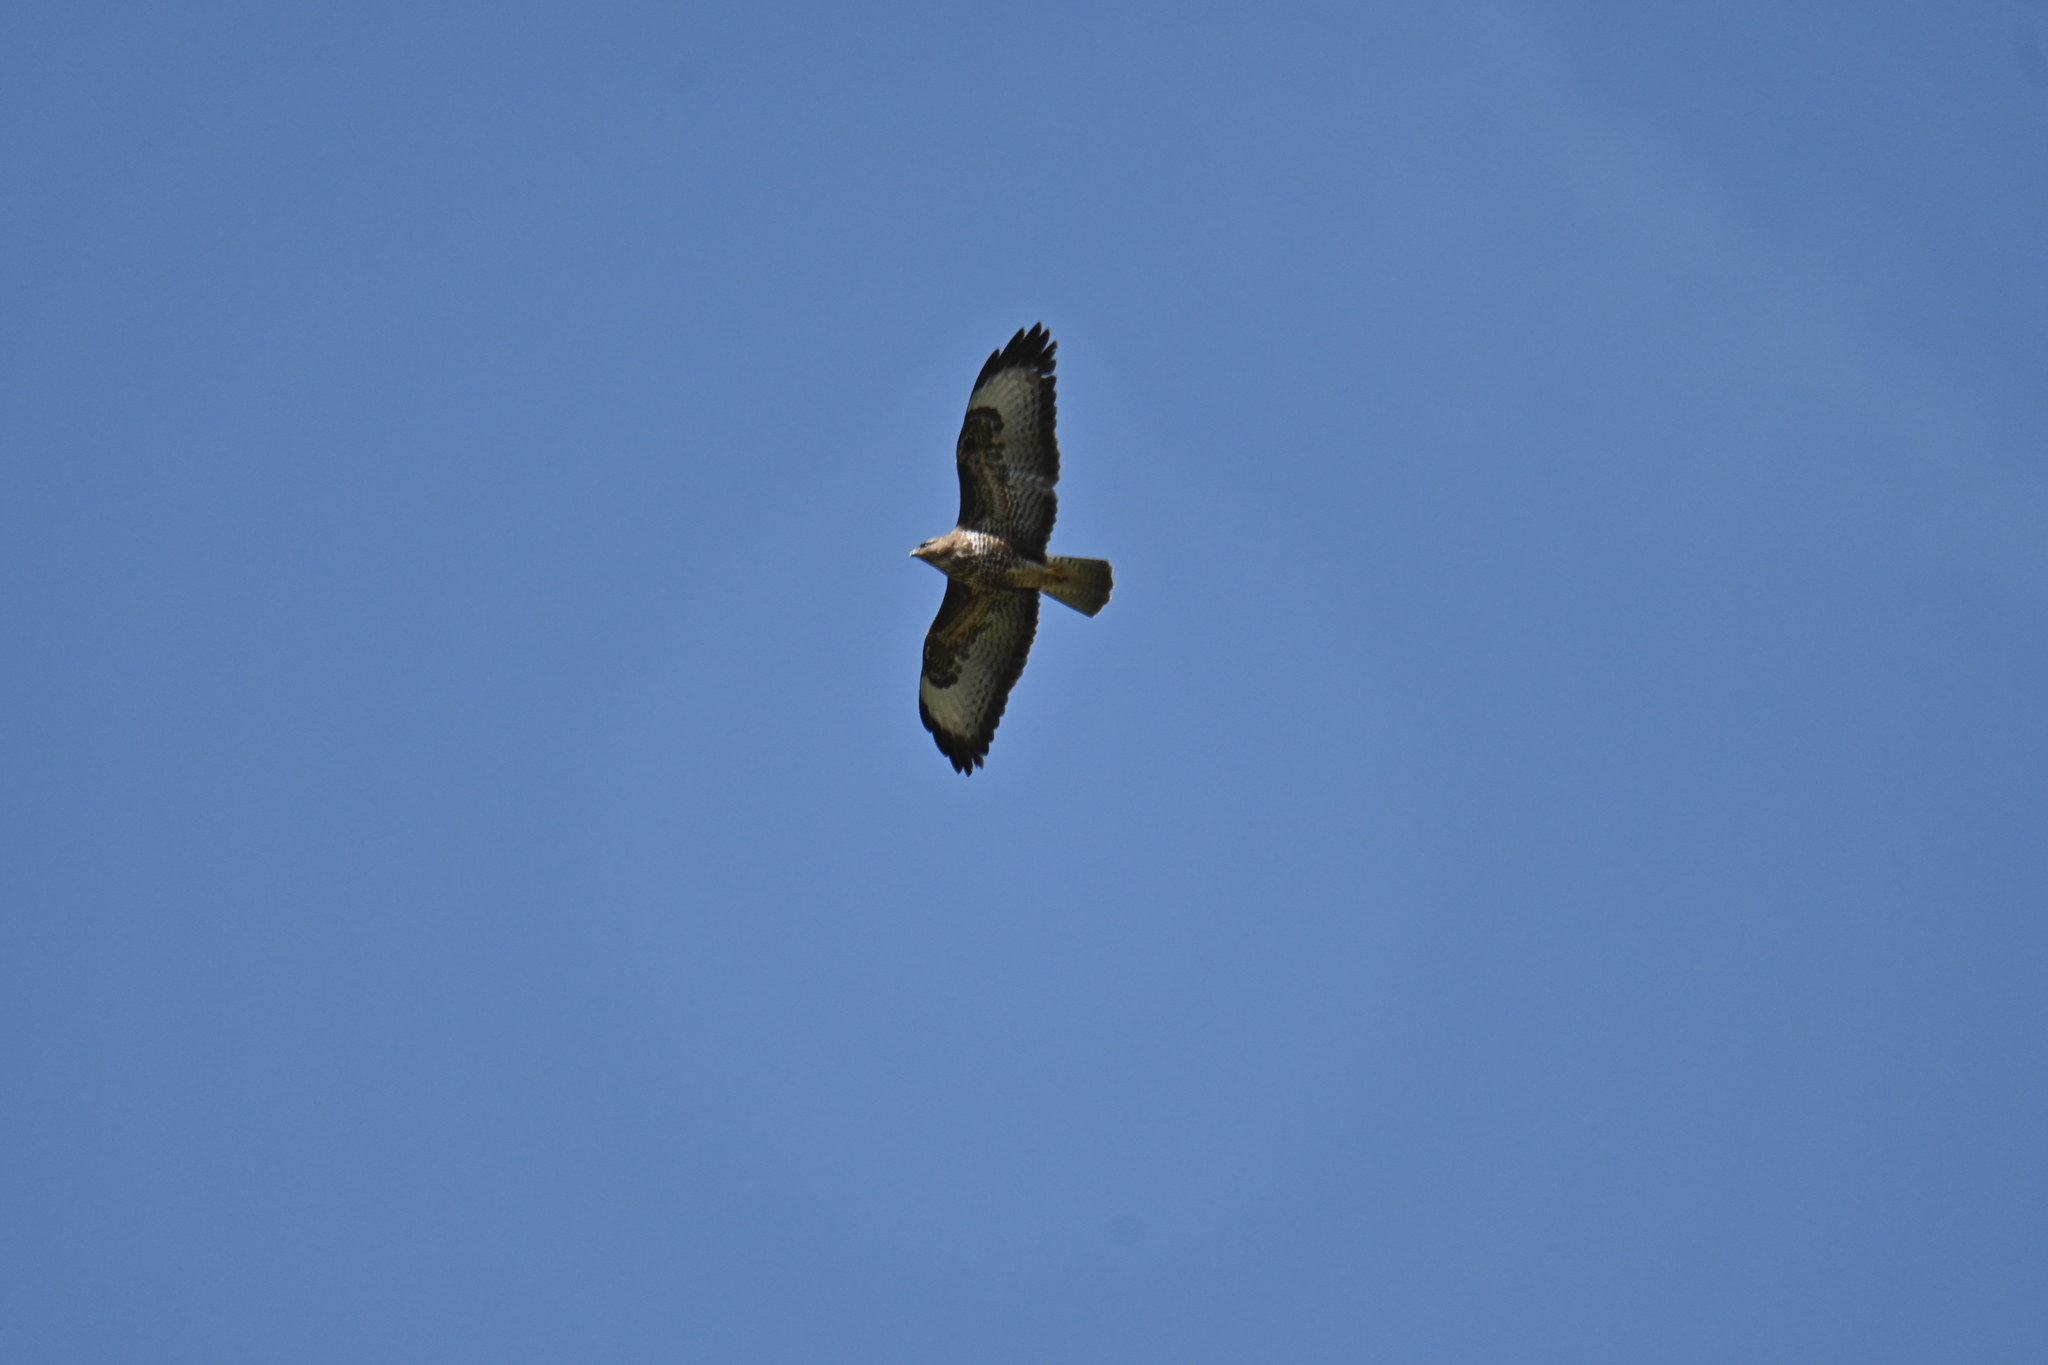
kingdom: Animalia
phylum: Chordata
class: Aves
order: Accipitriformes
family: Accipitridae
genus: Buteo
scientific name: Buteo buteo
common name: Common buzzard
